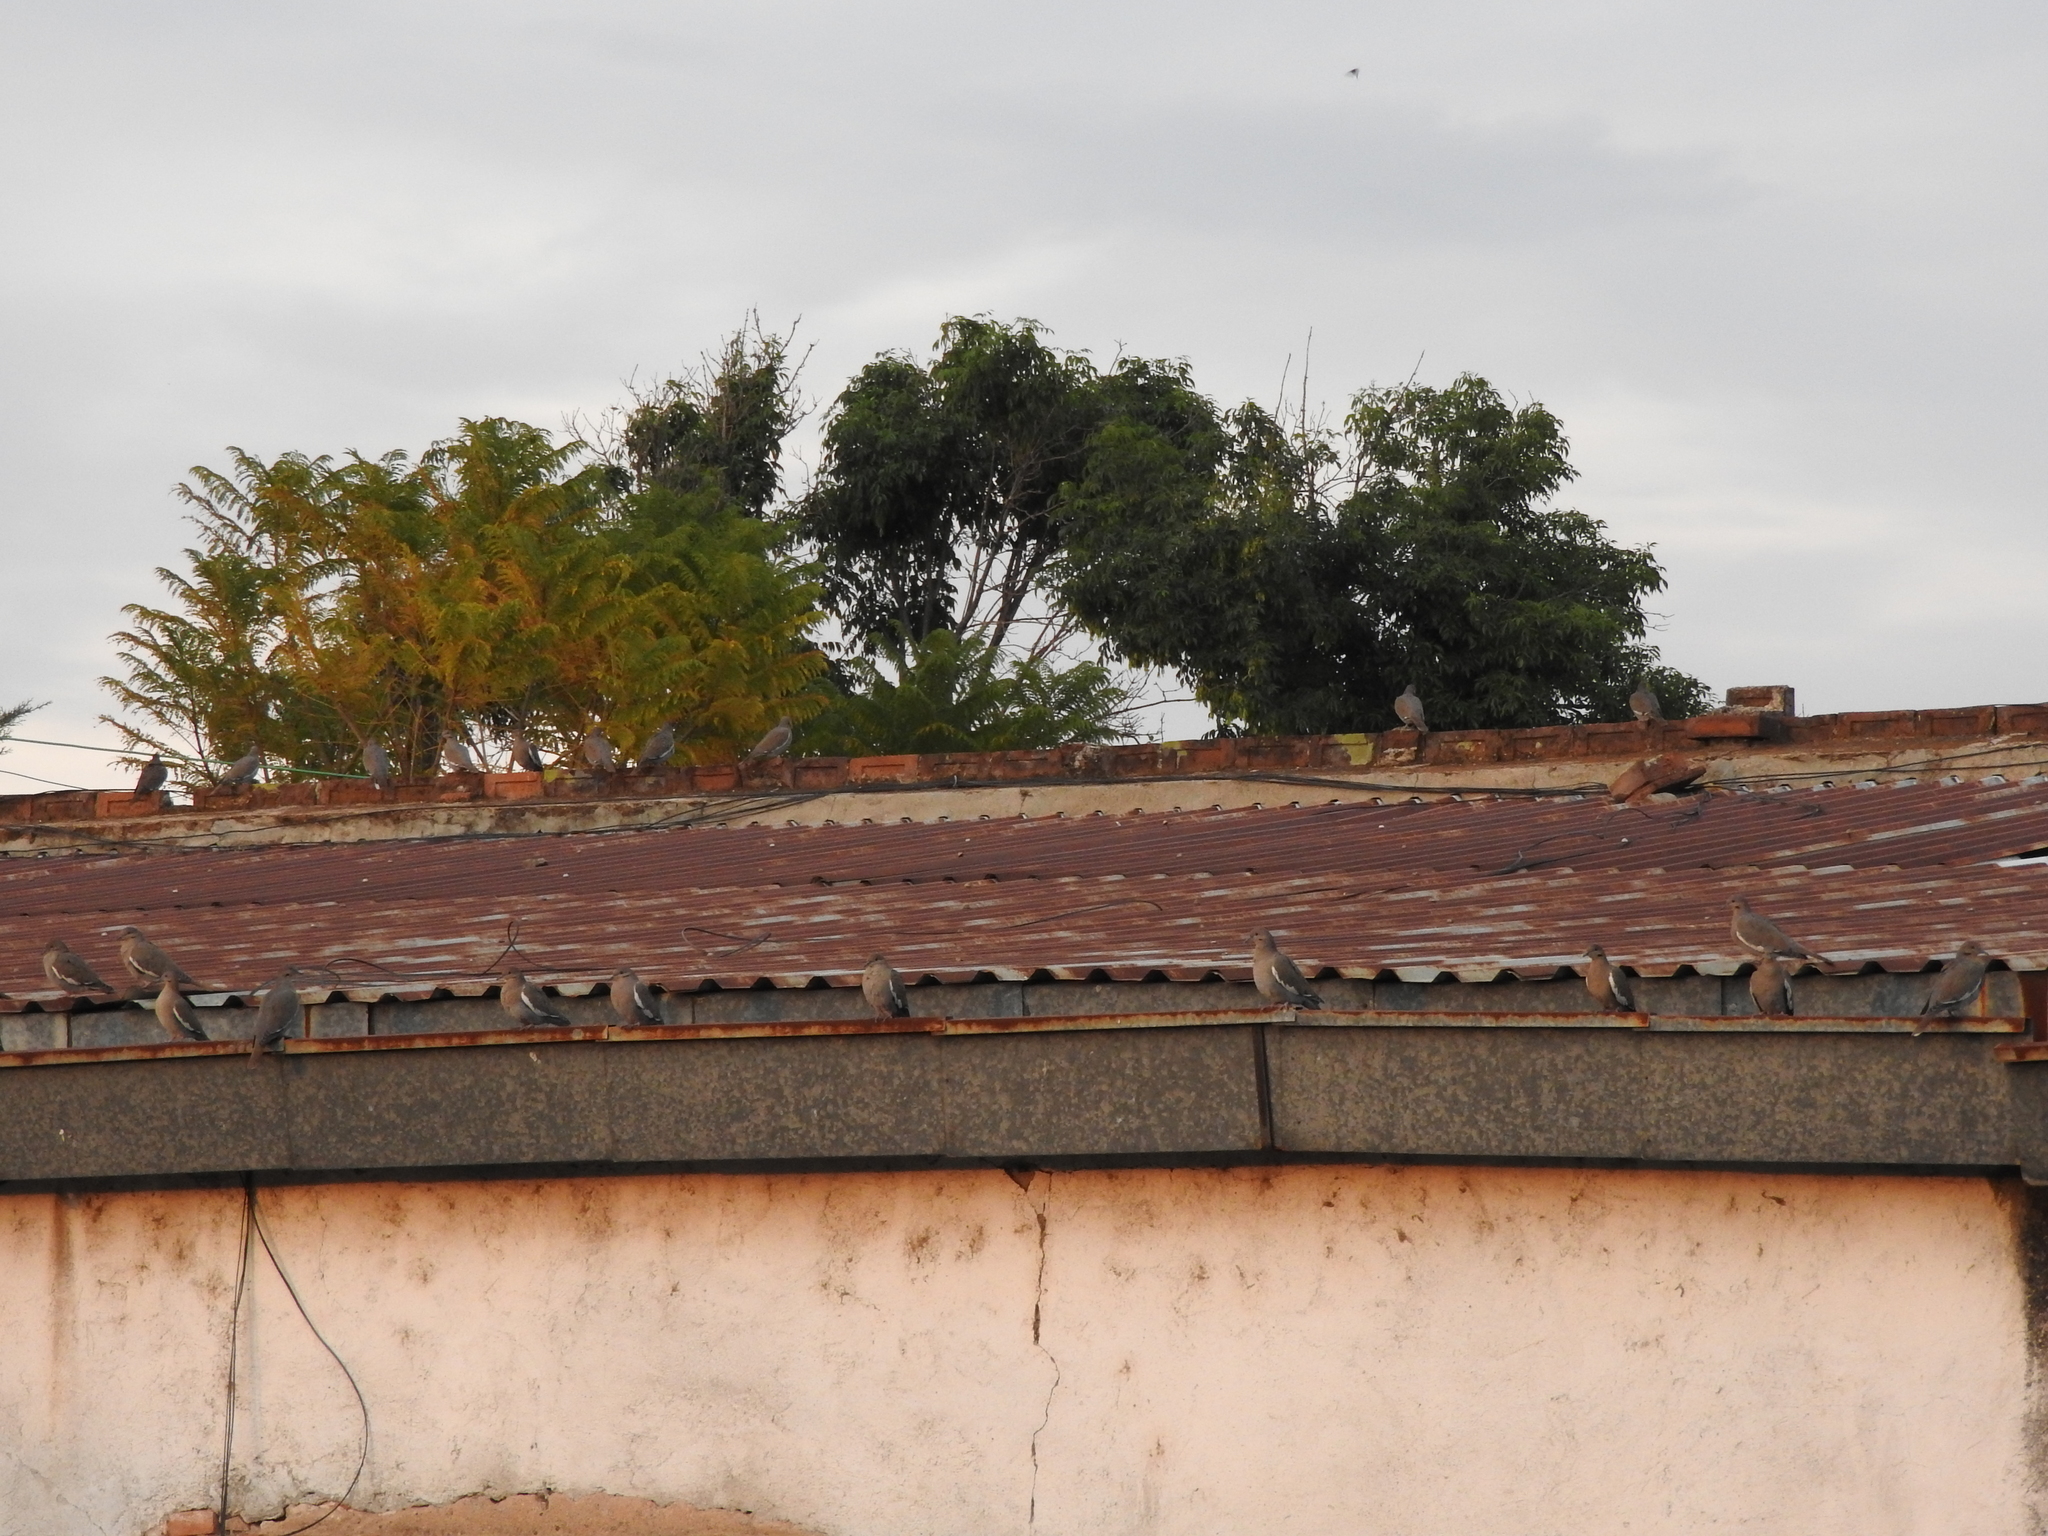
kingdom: Animalia
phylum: Chordata
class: Aves
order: Columbiformes
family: Columbidae
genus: Zenaida
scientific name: Zenaida asiatica
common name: White-winged dove
